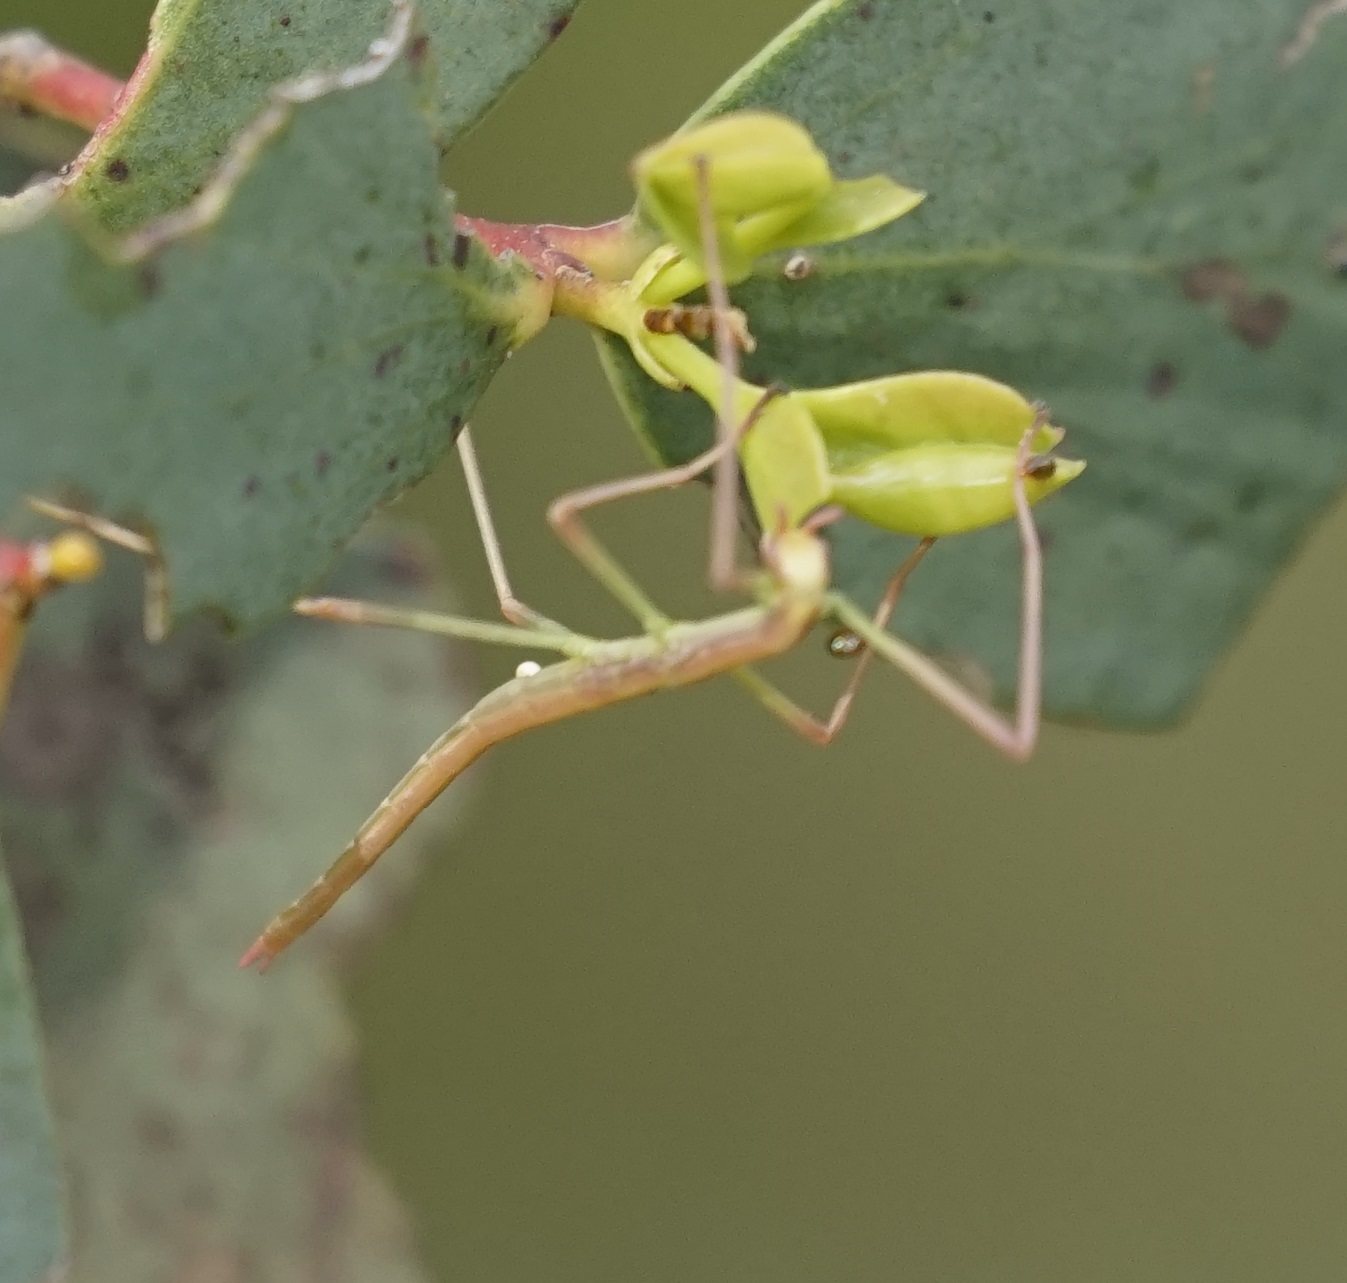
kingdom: Animalia
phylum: Arthropoda
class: Insecta
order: Phasmida
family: Phasmatidae
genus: Ctenomorpha
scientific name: Ctenomorpha marginipennis
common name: Margined-winged stick-insect
